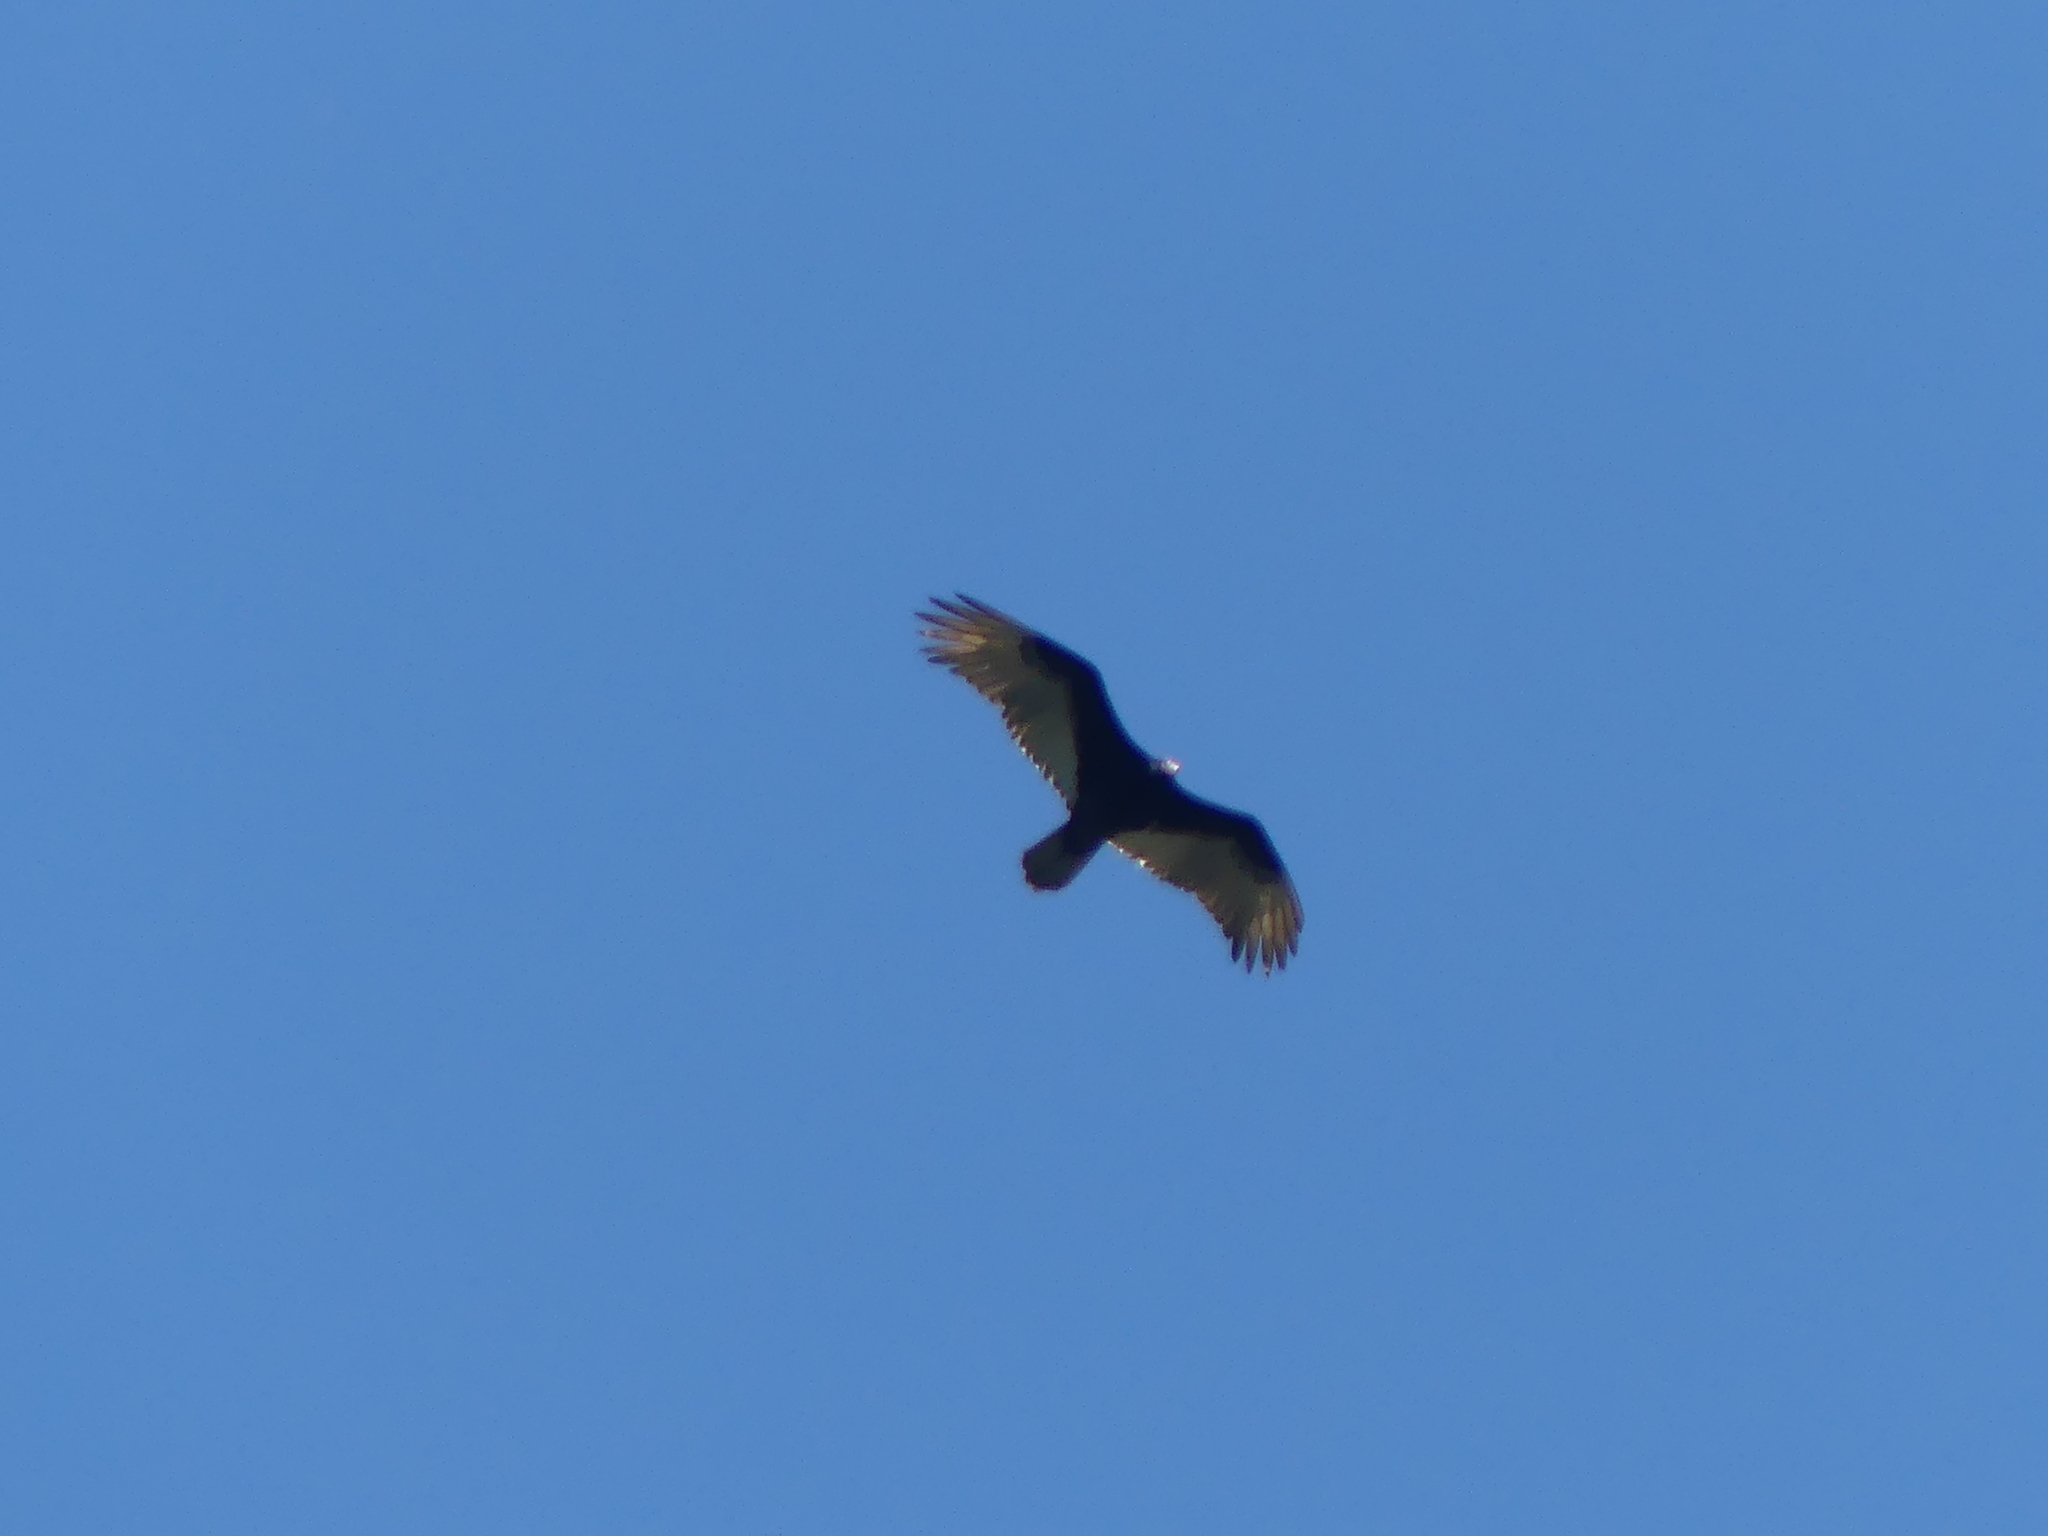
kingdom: Animalia
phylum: Chordata
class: Aves
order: Accipitriformes
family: Cathartidae
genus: Cathartes
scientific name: Cathartes aura
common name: Turkey vulture
